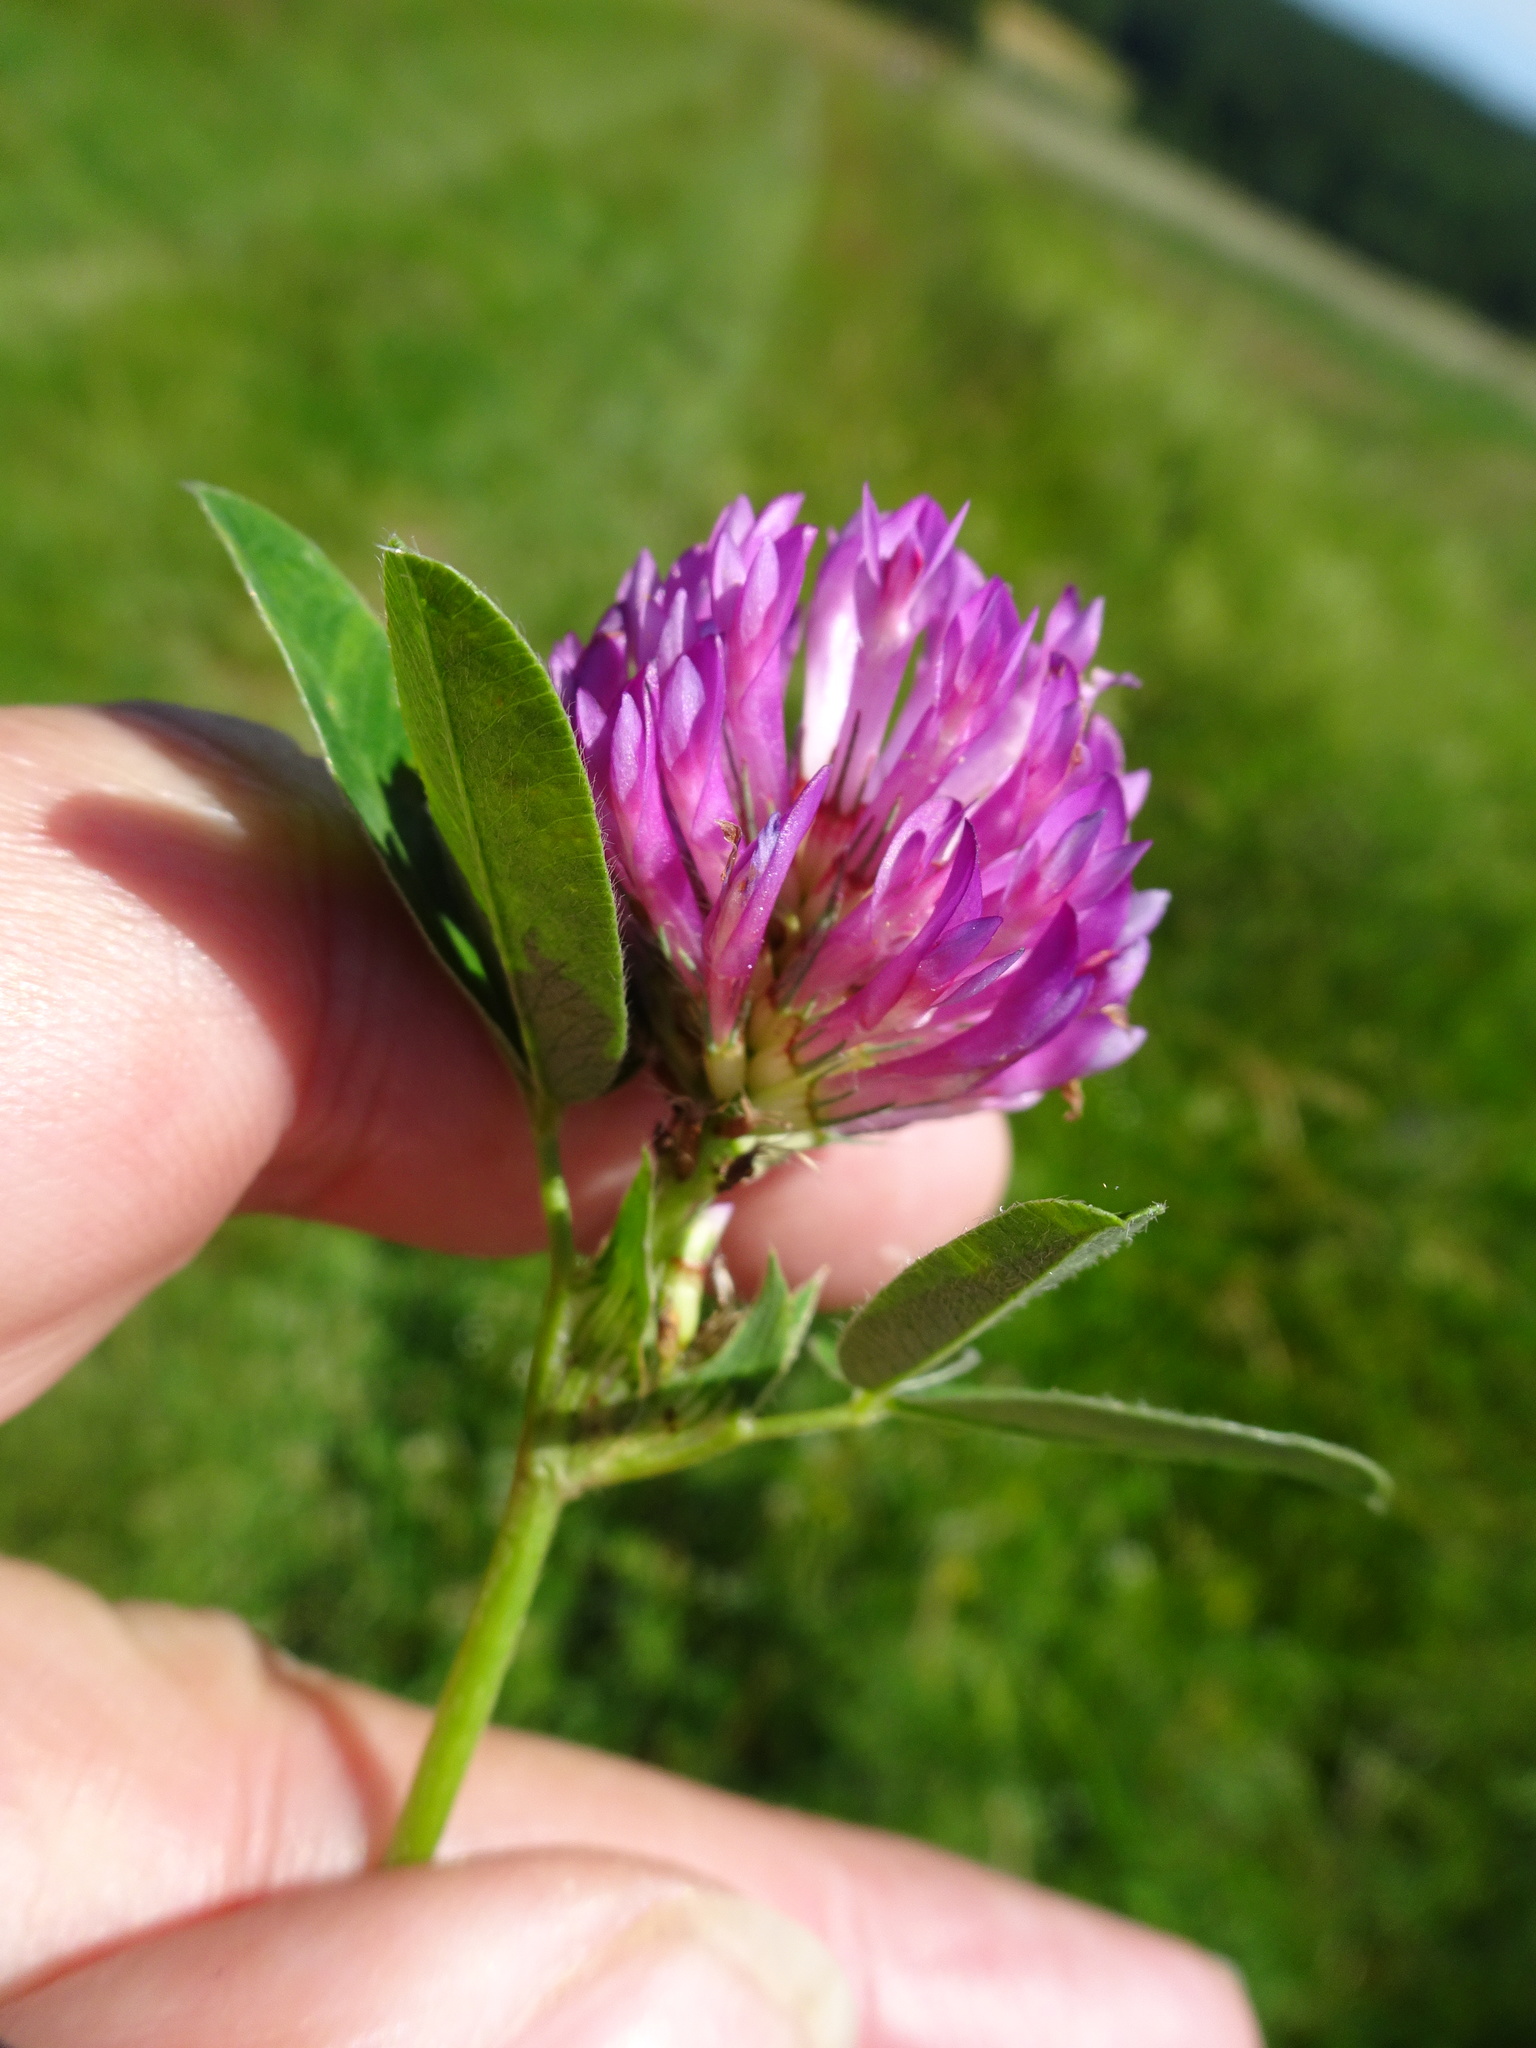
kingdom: Plantae
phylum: Tracheophyta
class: Magnoliopsida
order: Fabales
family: Fabaceae
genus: Trifolium
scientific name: Trifolium medium
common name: Zigzag clover
